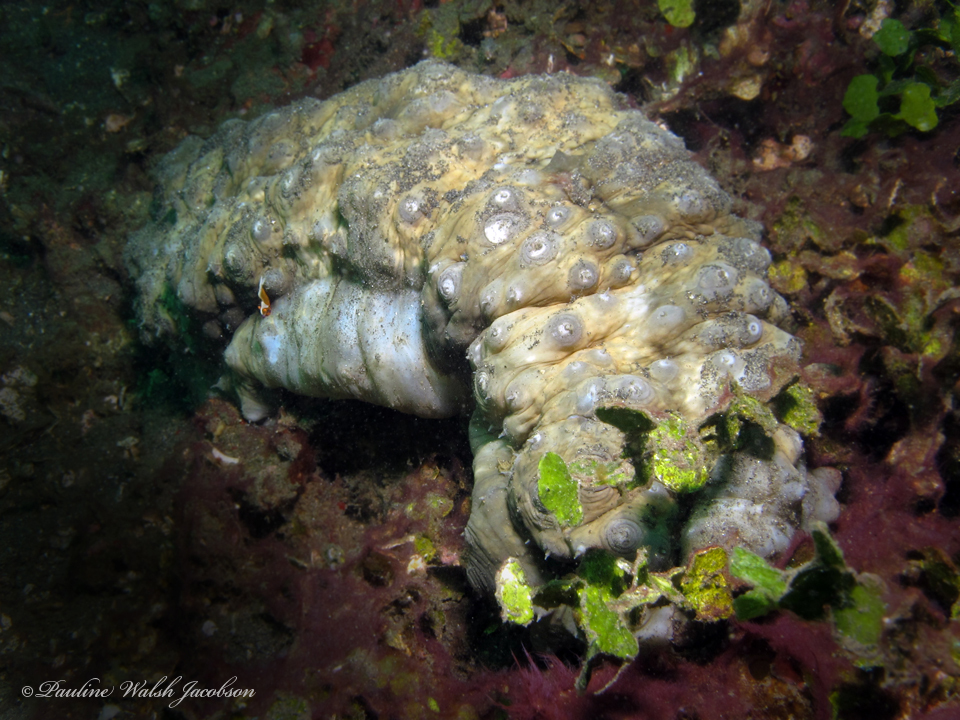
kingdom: Animalia
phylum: Arthropoda
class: Malacostraca
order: Decapoda
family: Palaemonidae
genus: Periclimenes
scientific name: Periclimenes rex
